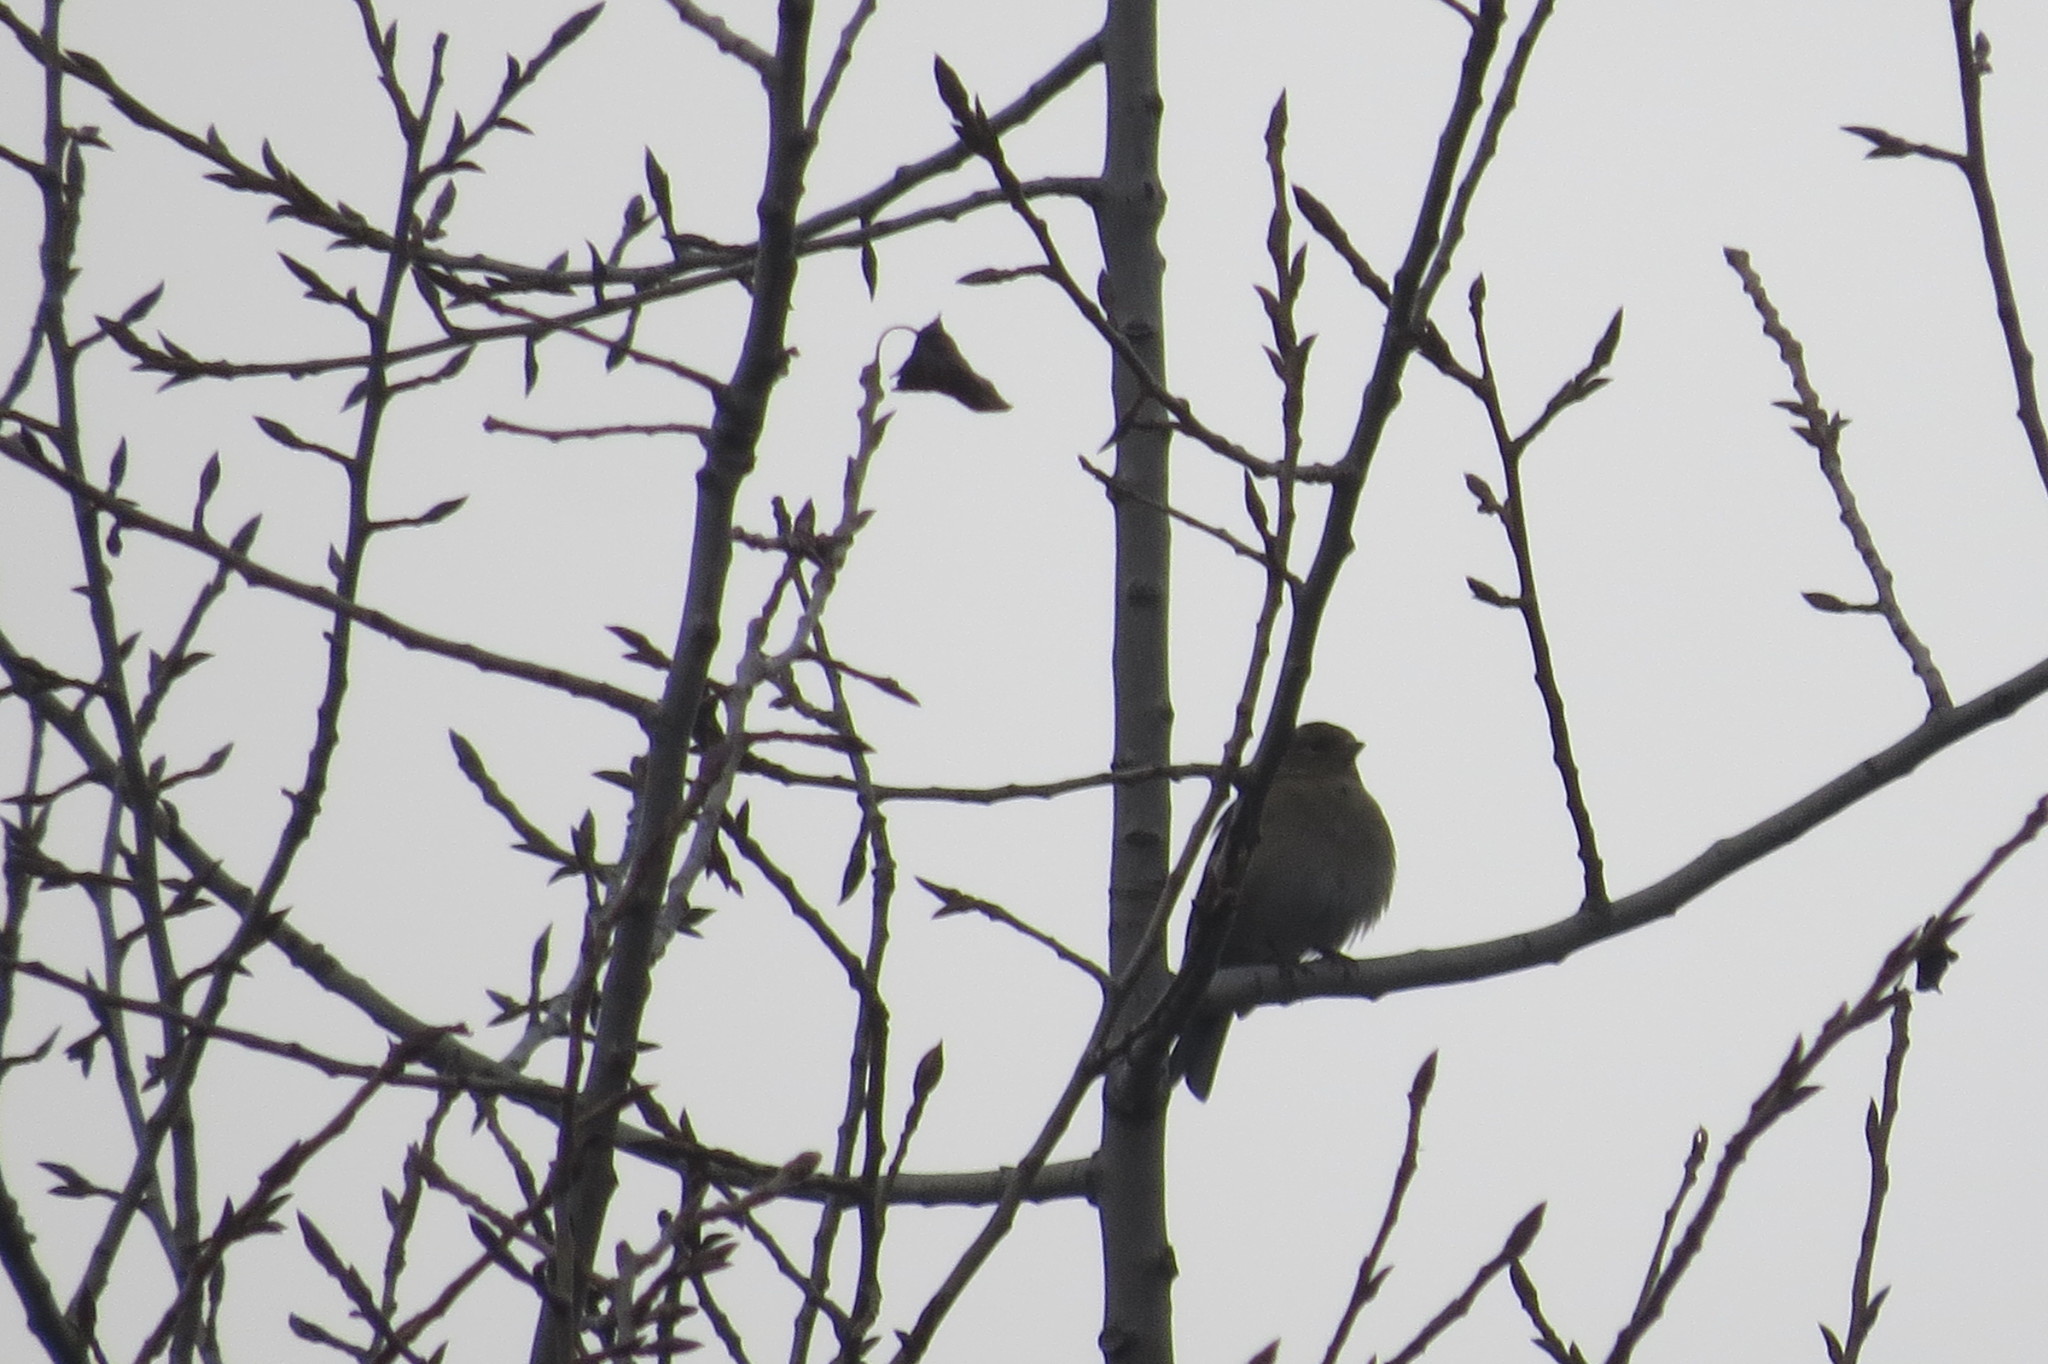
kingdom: Animalia
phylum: Chordata
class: Aves
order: Passeriformes
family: Fringillidae
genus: Fringilla
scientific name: Fringilla coelebs
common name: Common chaffinch
